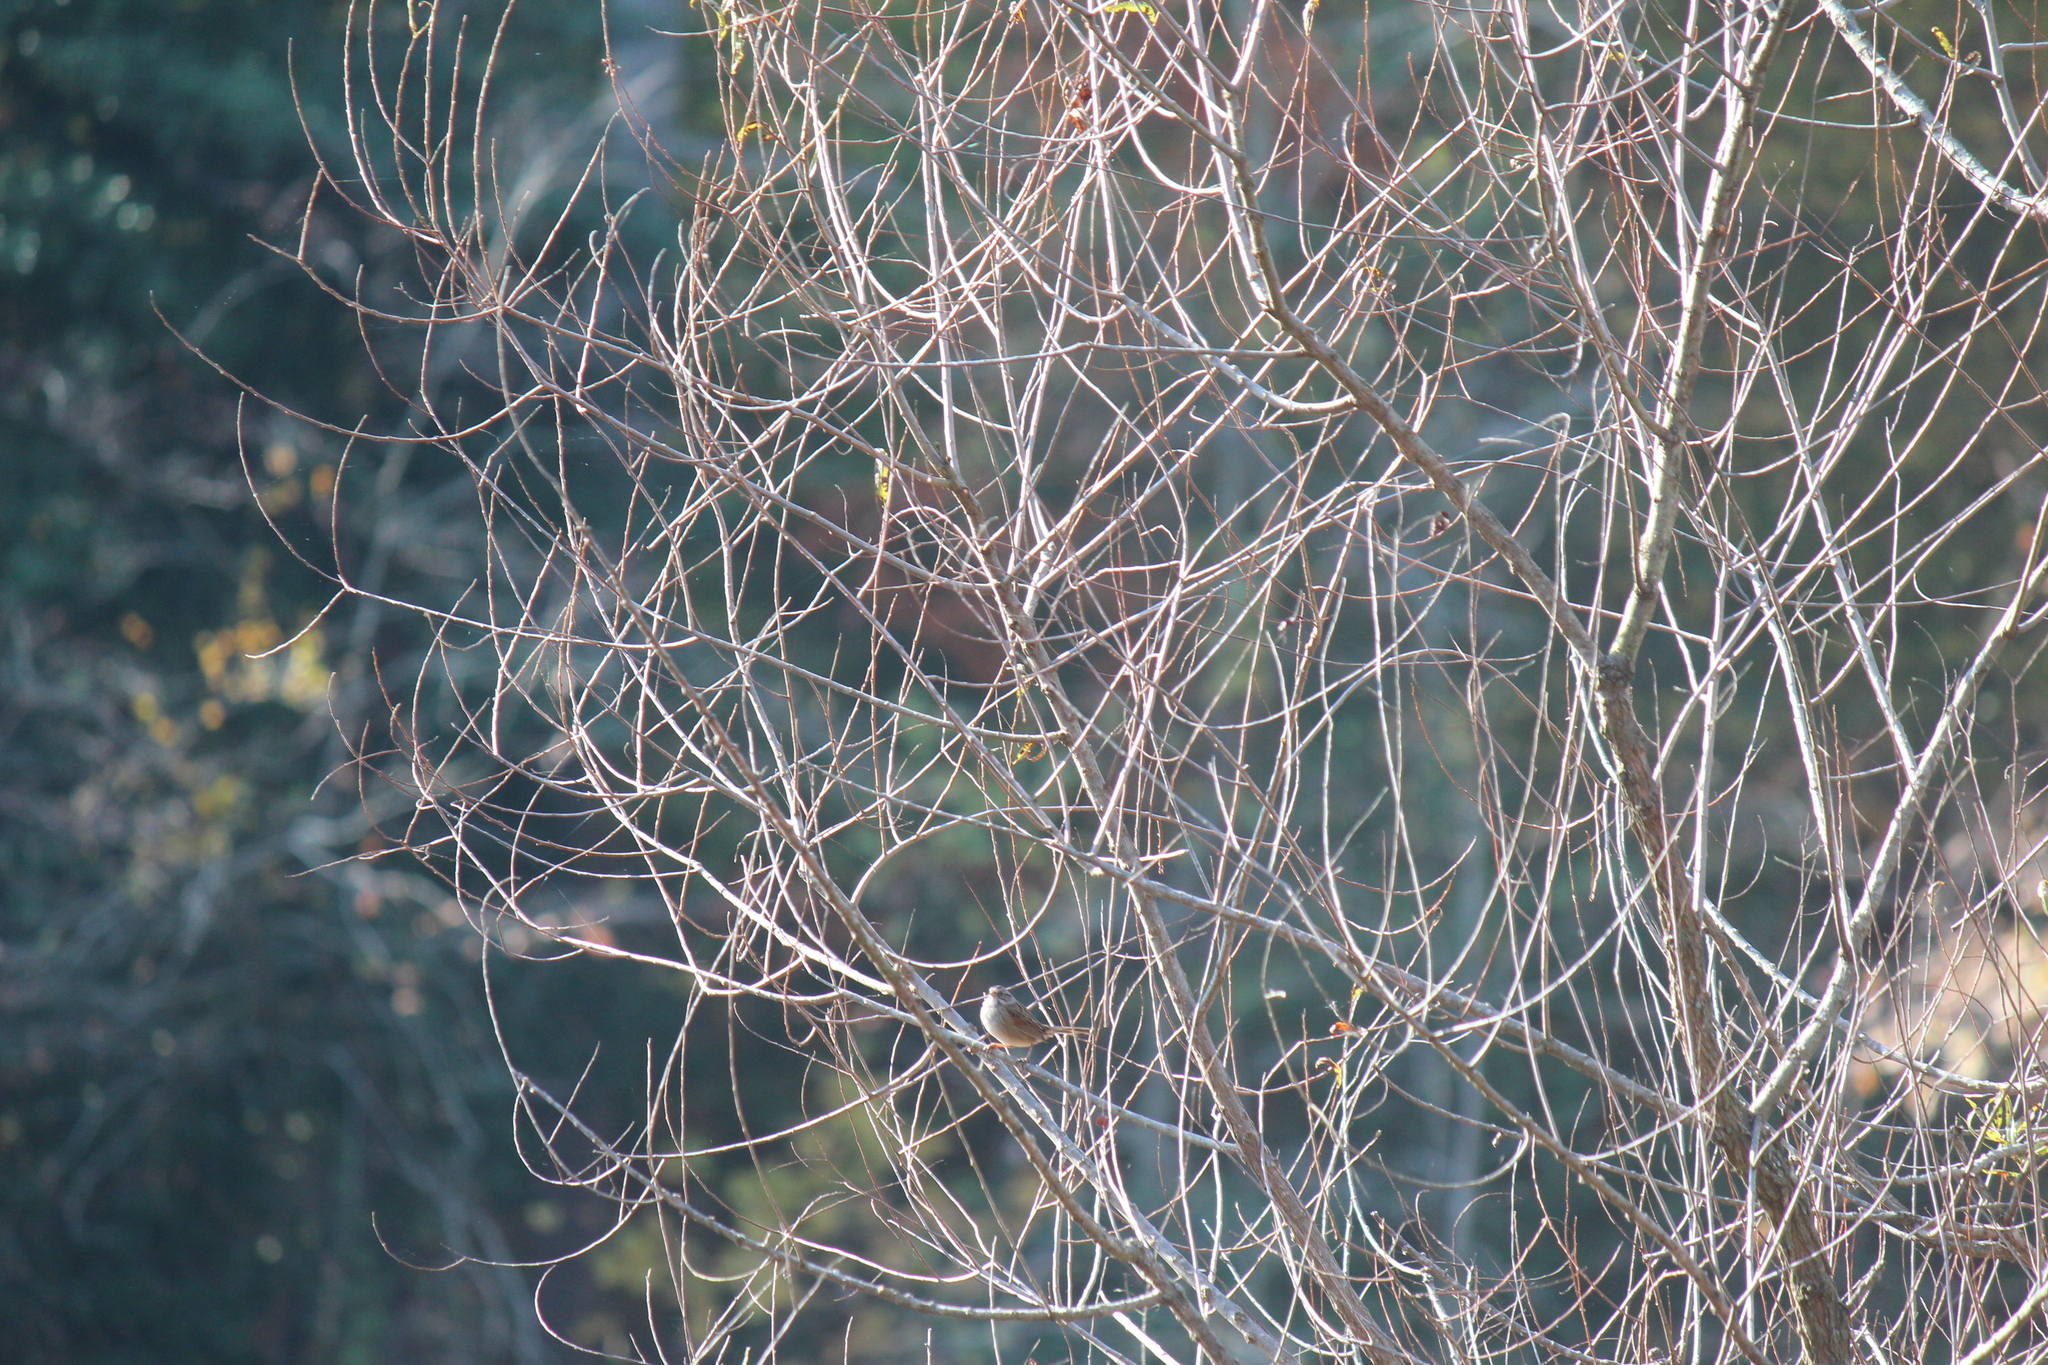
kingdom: Animalia
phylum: Chordata
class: Aves
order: Passeriformes
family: Passerellidae
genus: Melospiza
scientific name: Melospiza georgiana
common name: Swamp sparrow
